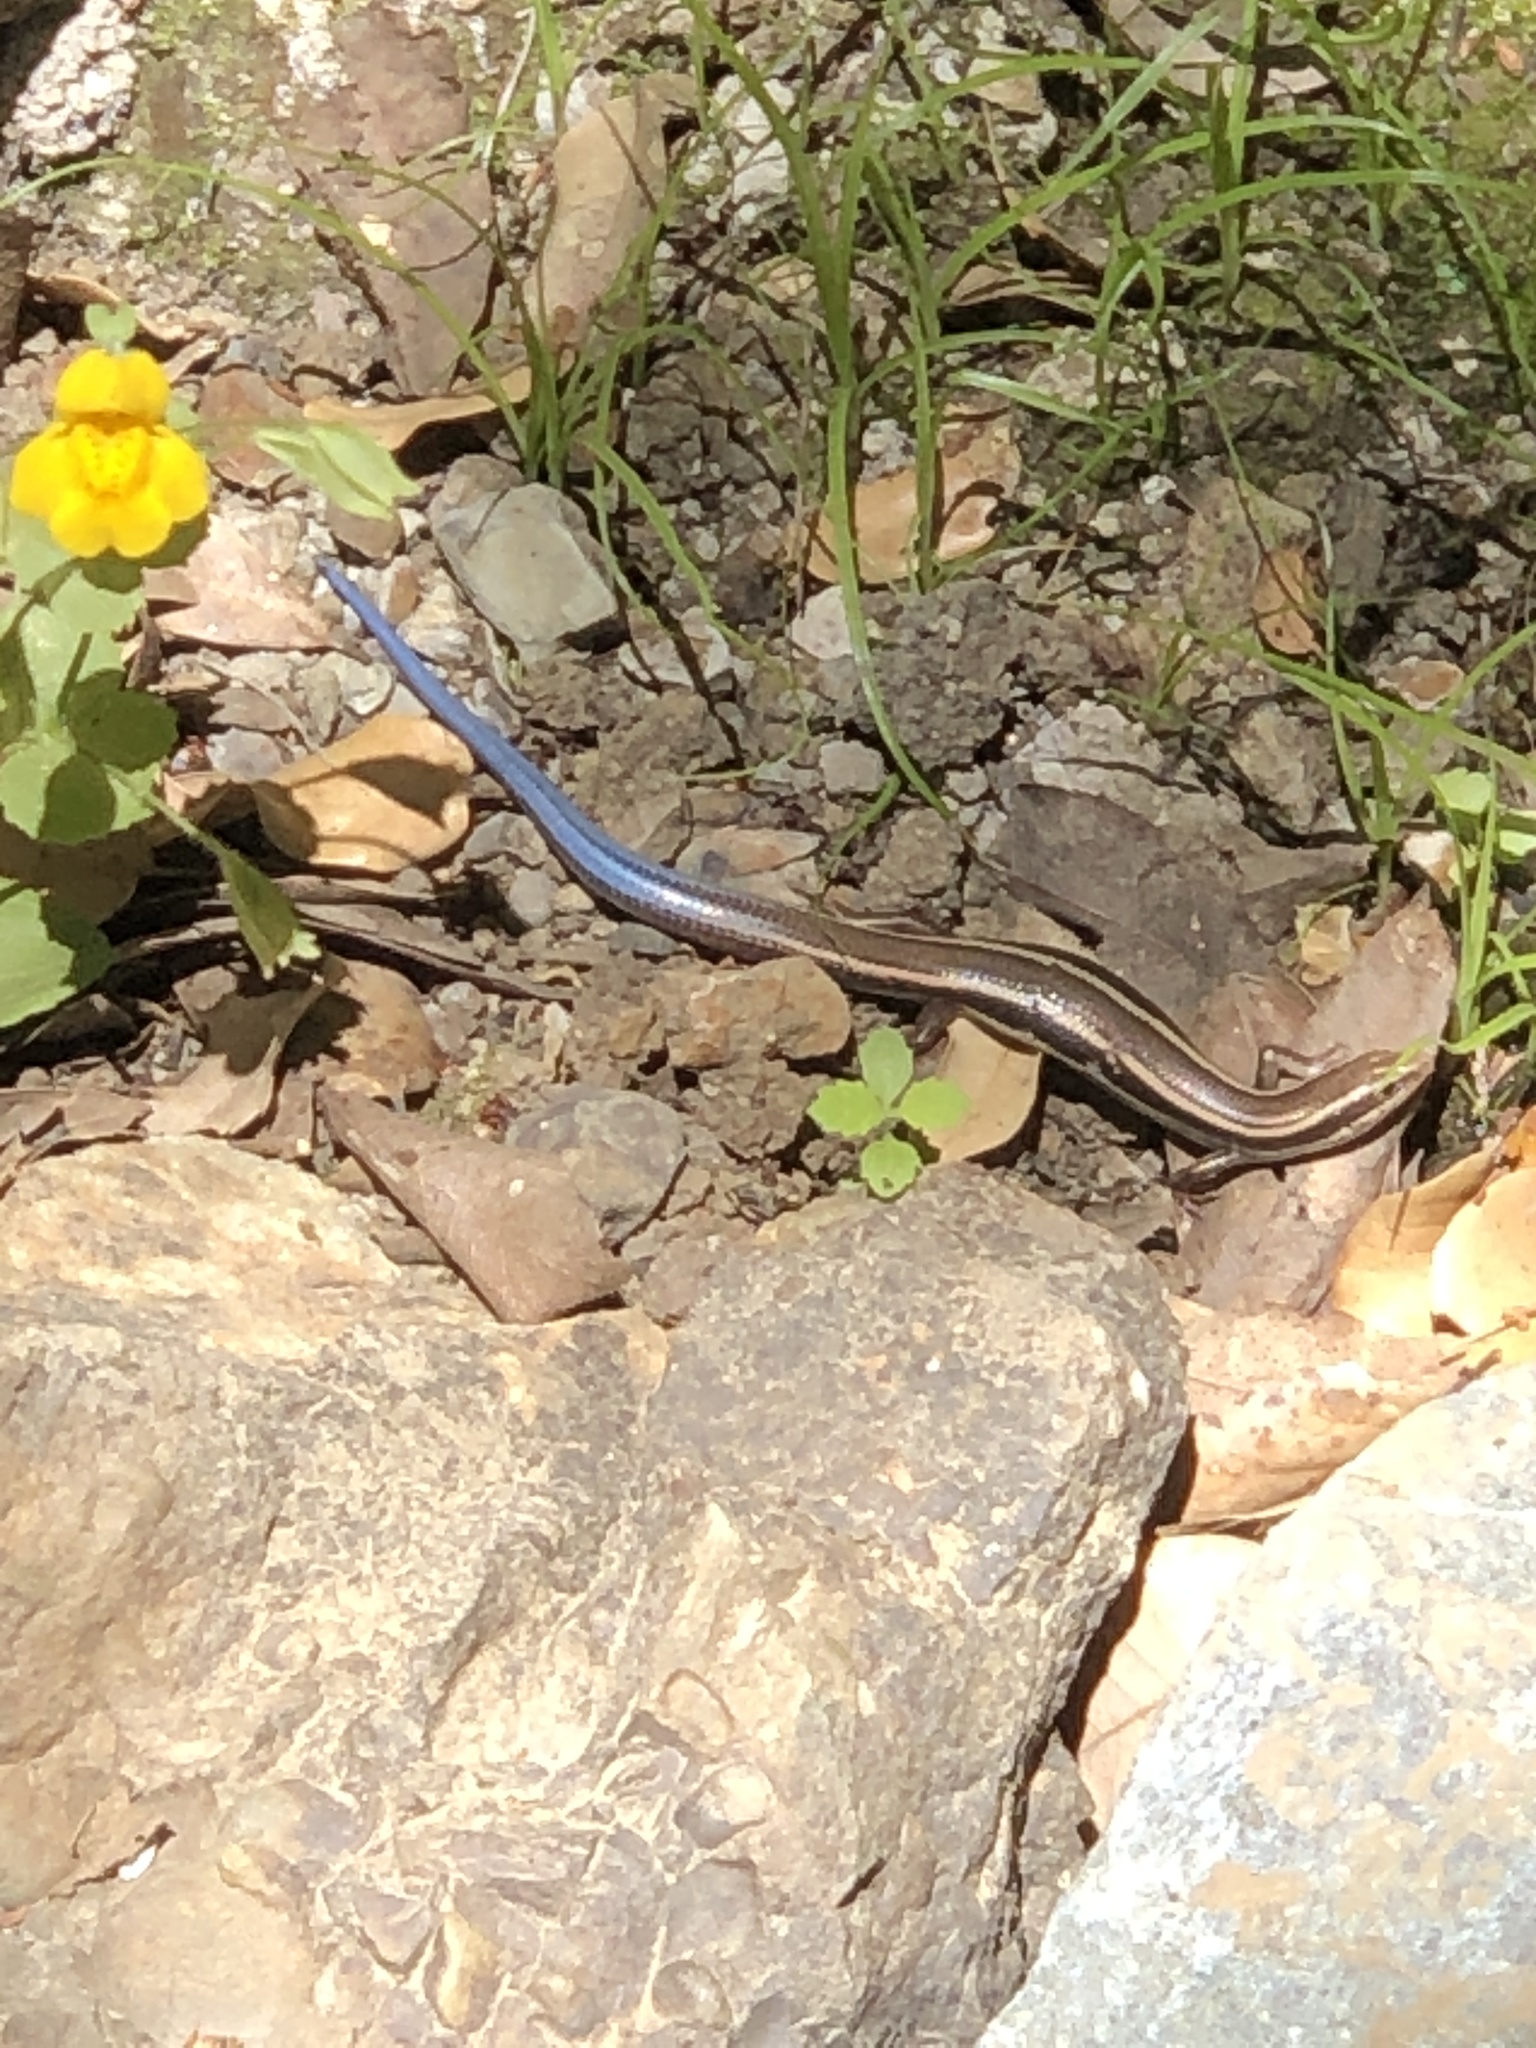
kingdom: Animalia
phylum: Chordata
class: Squamata
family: Scincidae
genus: Plestiodon
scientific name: Plestiodon skiltonianus
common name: Coronado island skink [interparietalis]
